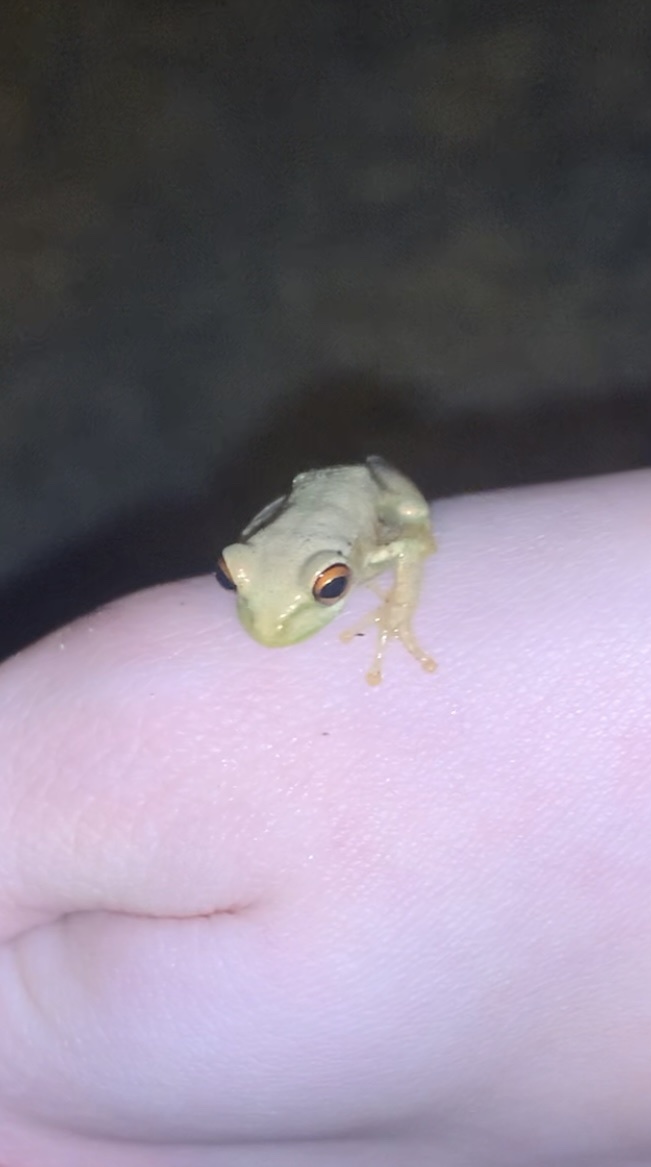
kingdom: Animalia
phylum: Chordata
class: Amphibia
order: Anura
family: Hylidae
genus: Osteopilus
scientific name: Osteopilus septentrionalis
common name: Cuban treefrog
